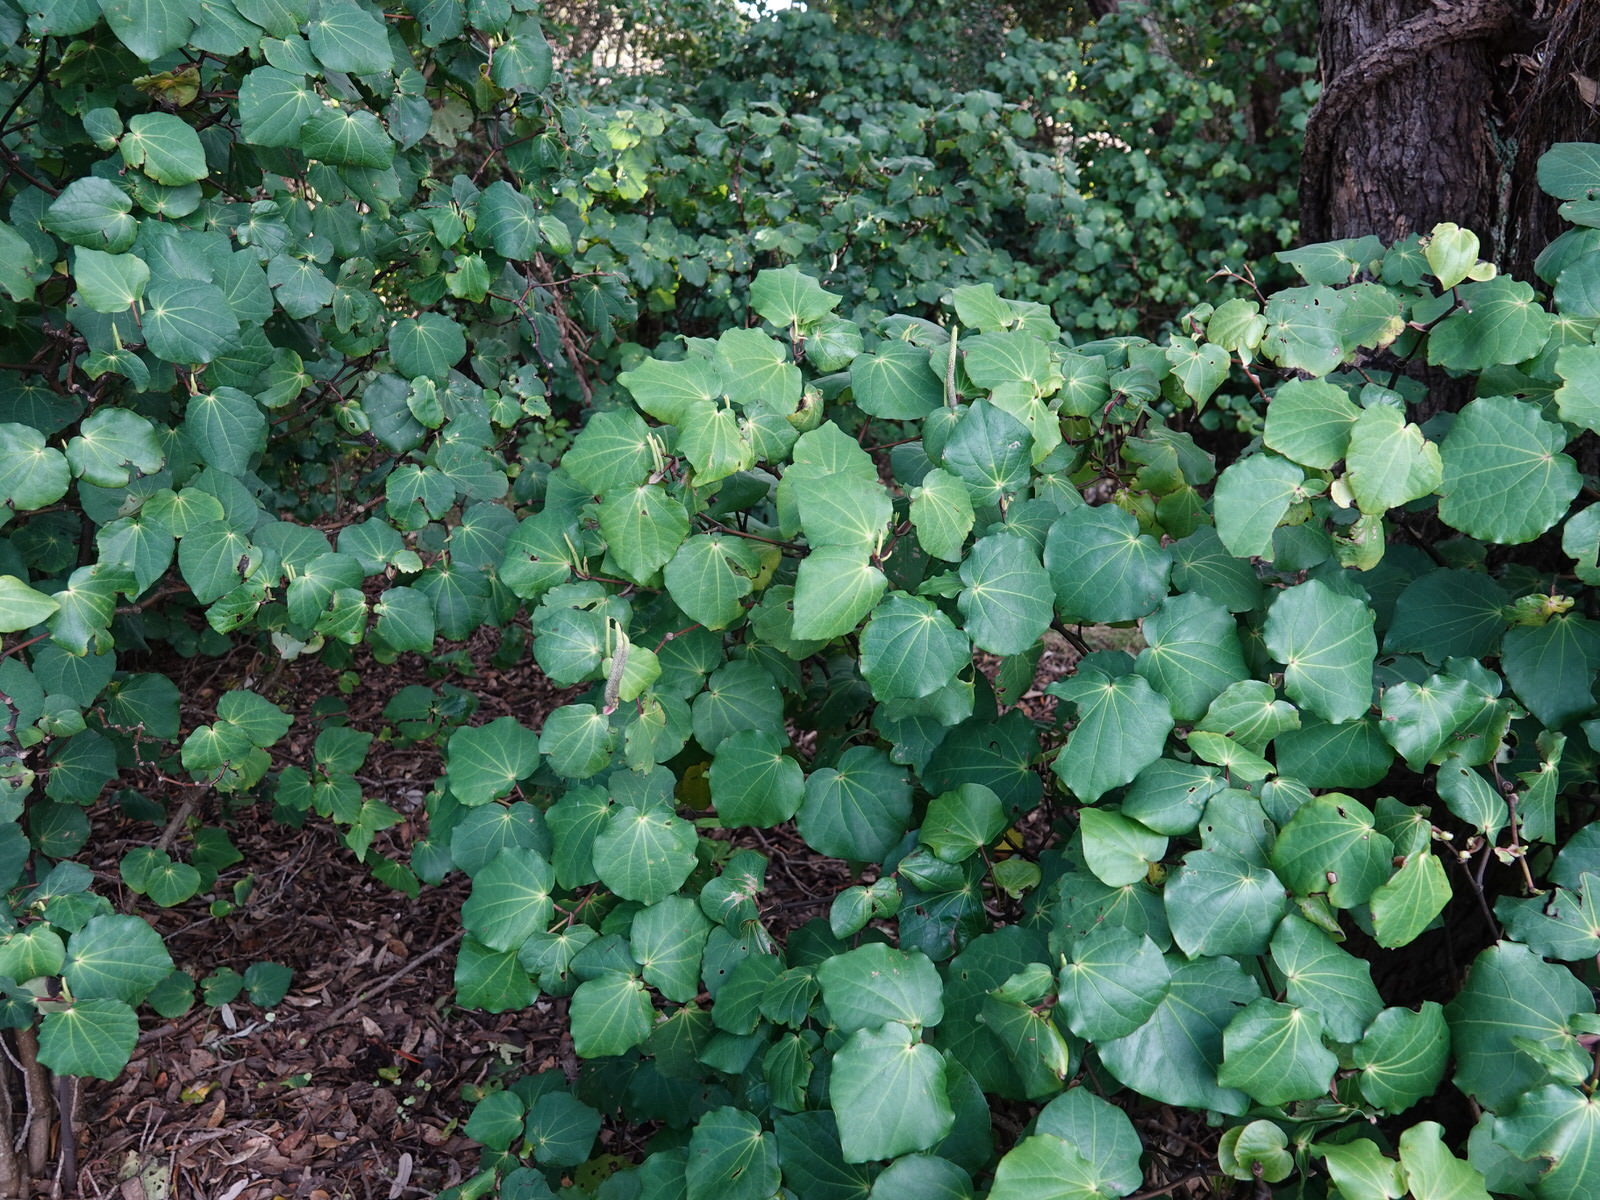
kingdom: Plantae
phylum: Tracheophyta
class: Magnoliopsida
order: Piperales
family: Piperaceae
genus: Macropiper
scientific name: Macropiper excelsum
